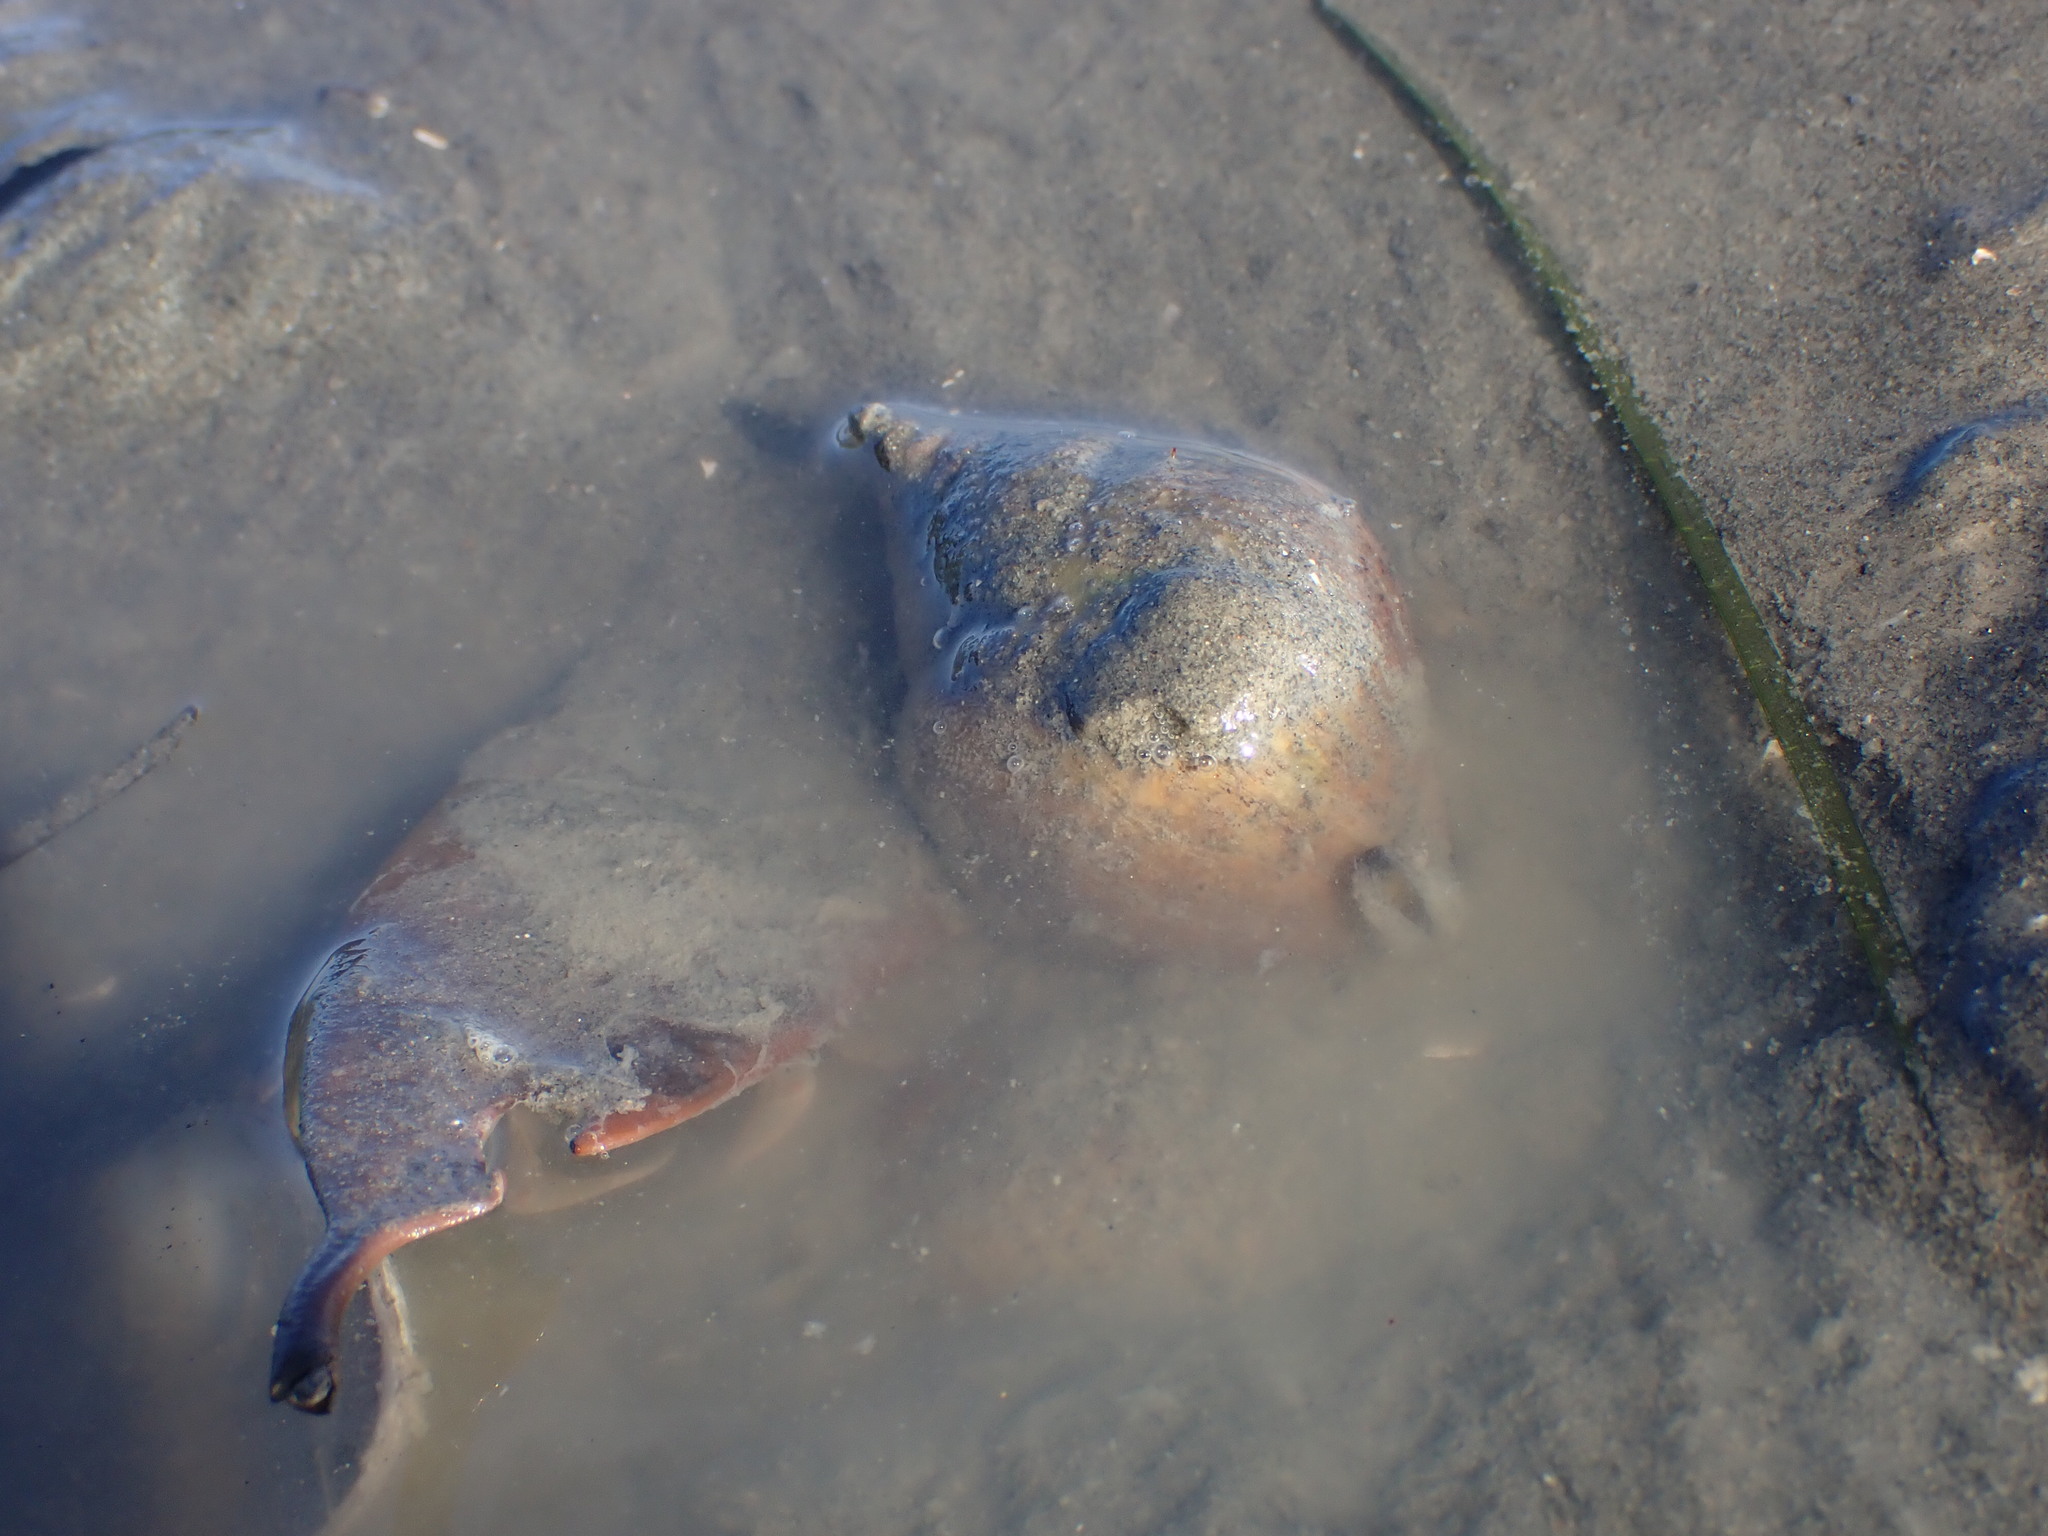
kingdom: Animalia
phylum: Mollusca
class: Gastropoda
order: Neogastropoda
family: Cominellidae
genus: Cominella
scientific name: Cominella adspersa
